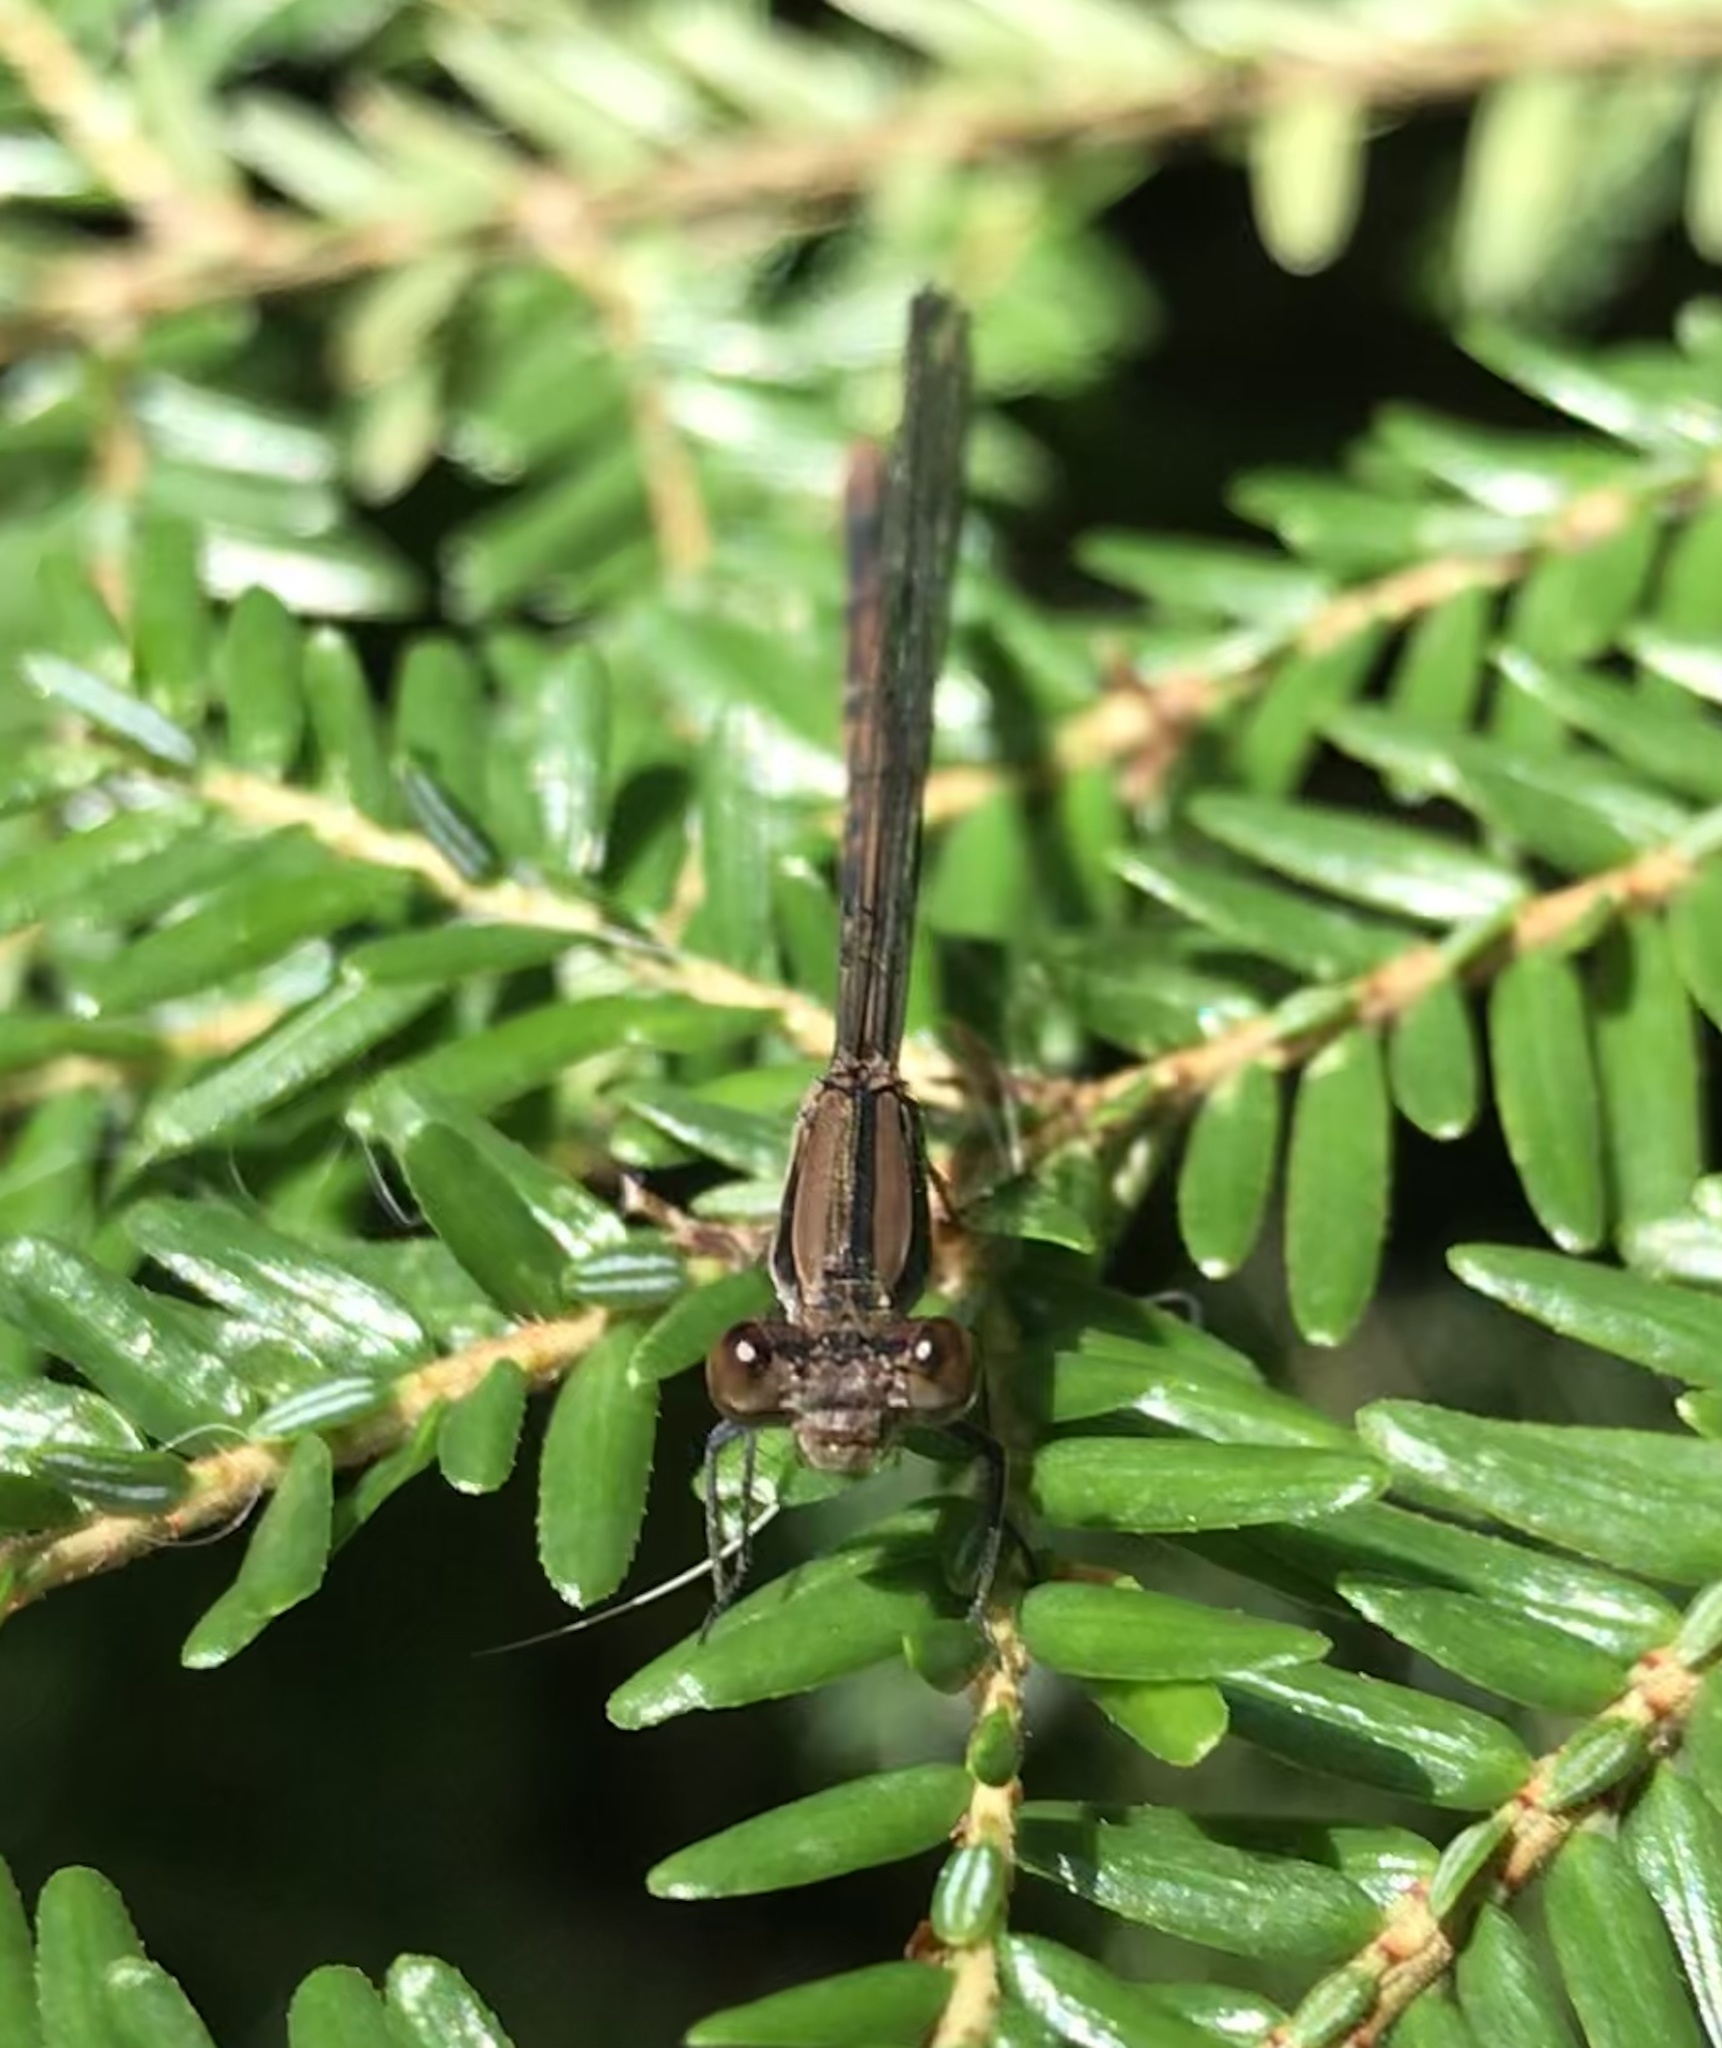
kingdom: Animalia
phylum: Arthropoda
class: Insecta
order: Odonata
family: Coenagrionidae
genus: Argia
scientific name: Argia fumipennis
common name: Variable dancer
